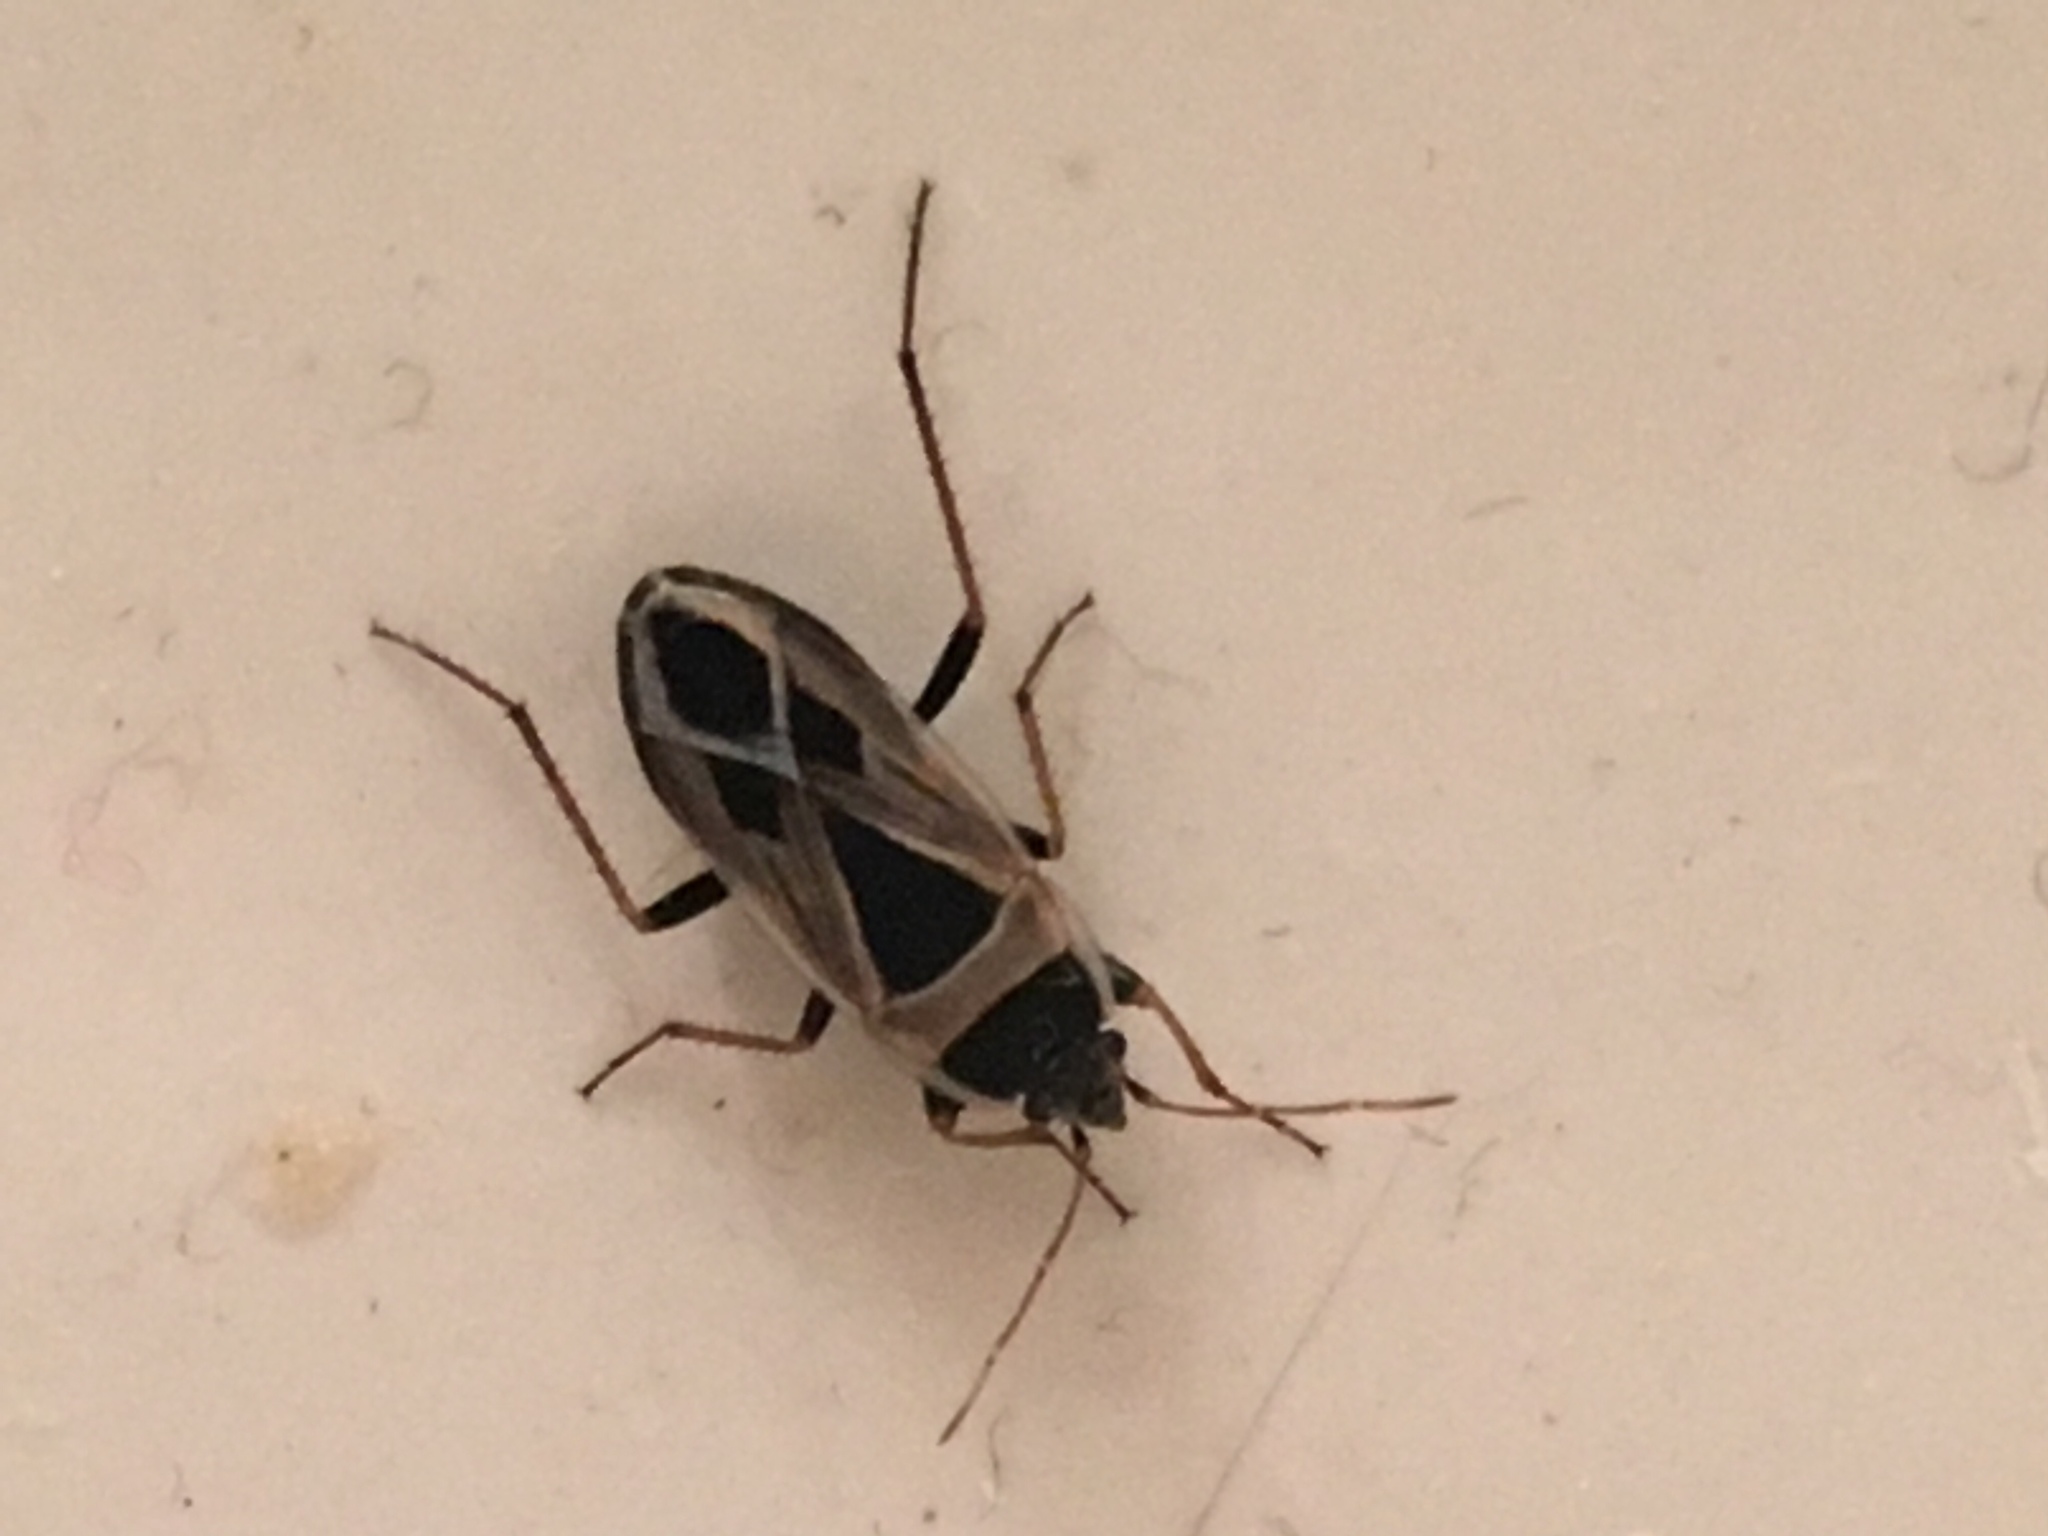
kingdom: Animalia
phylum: Arthropoda
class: Insecta
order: Hemiptera
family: Rhyparochromidae
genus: Xanthochilus
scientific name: Xanthochilus saturnius
